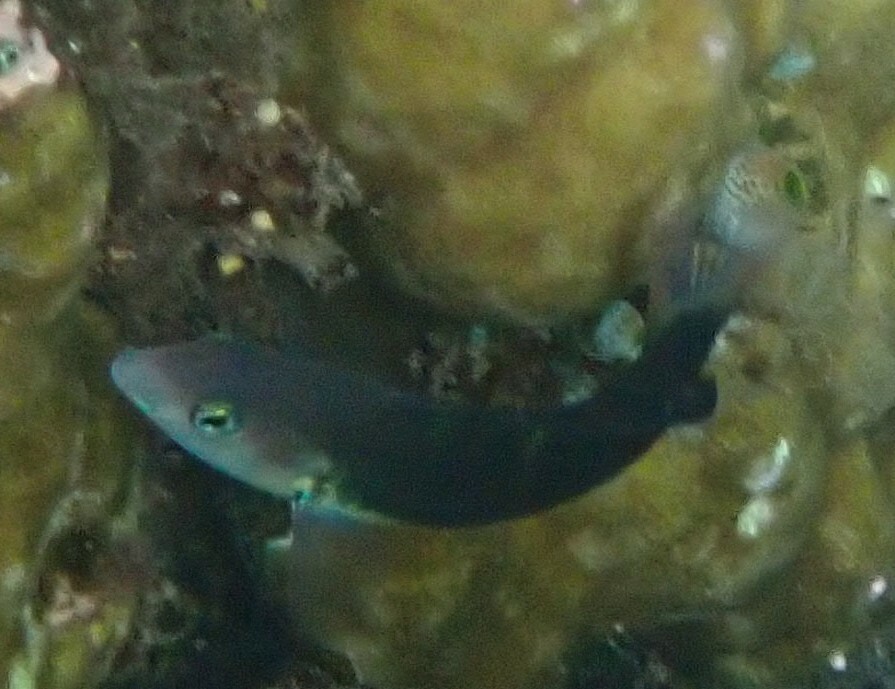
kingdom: Animalia
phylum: Chordata
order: Perciformes
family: Labridae
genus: Thalassoma
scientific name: Thalassoma jansenii
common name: Jansen's wrasse
